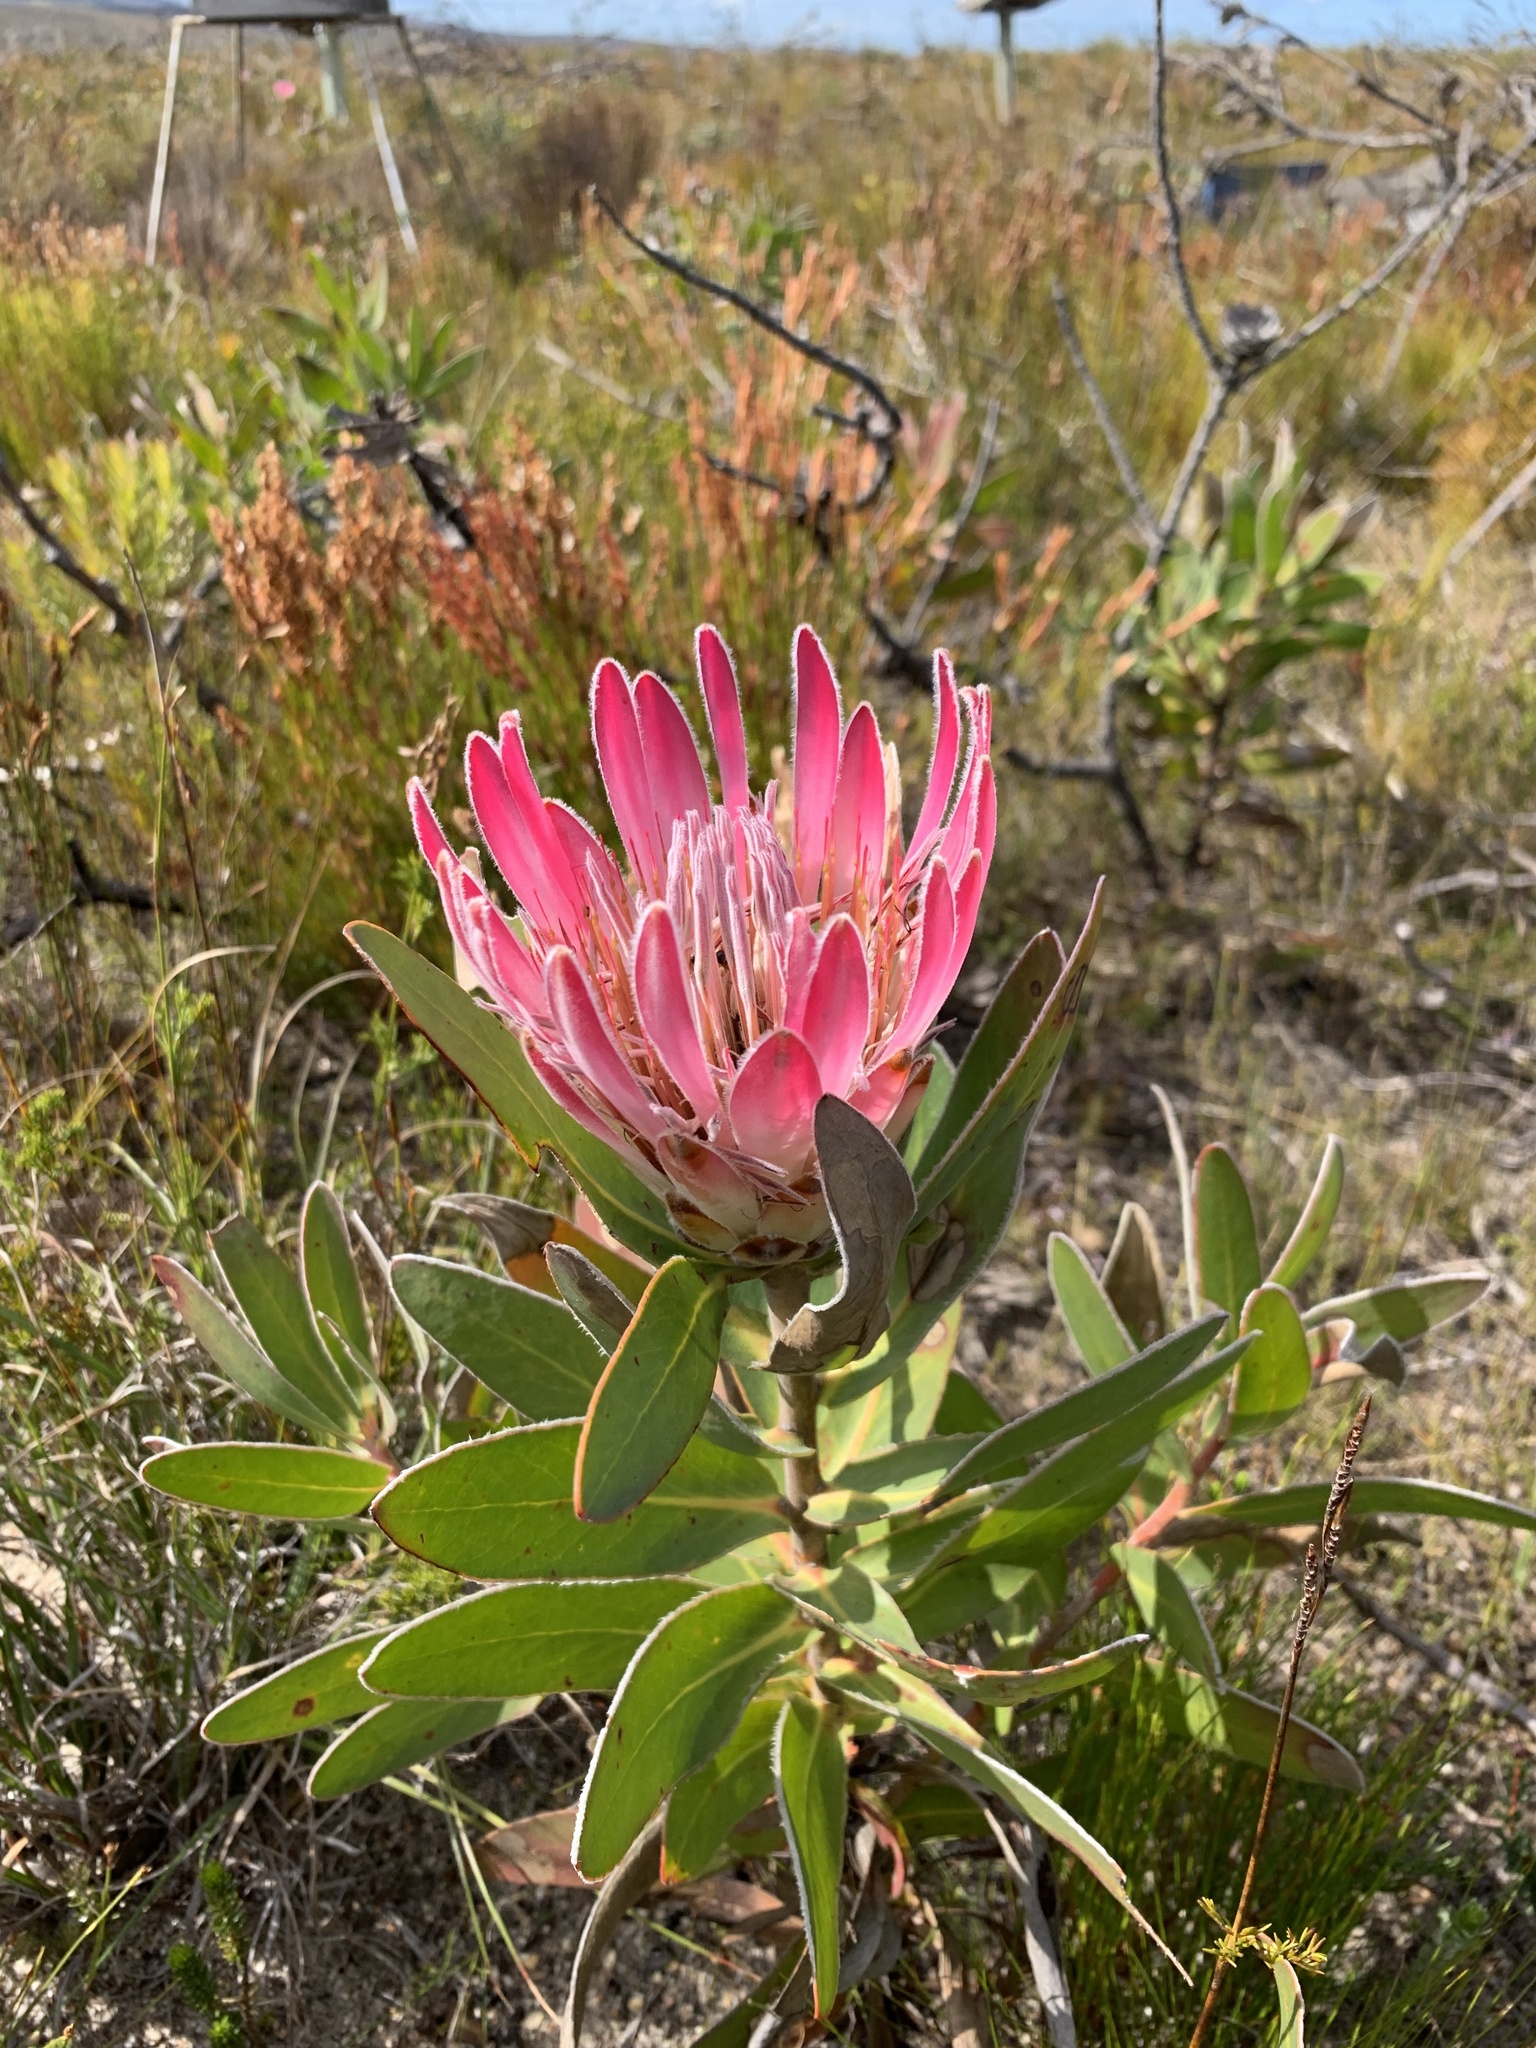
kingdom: Plantae
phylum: Tracheophyta
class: Magnoliopsida
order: Proteales
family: Proteaceae
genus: Protea
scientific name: Protea compacta
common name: Bot river protea
